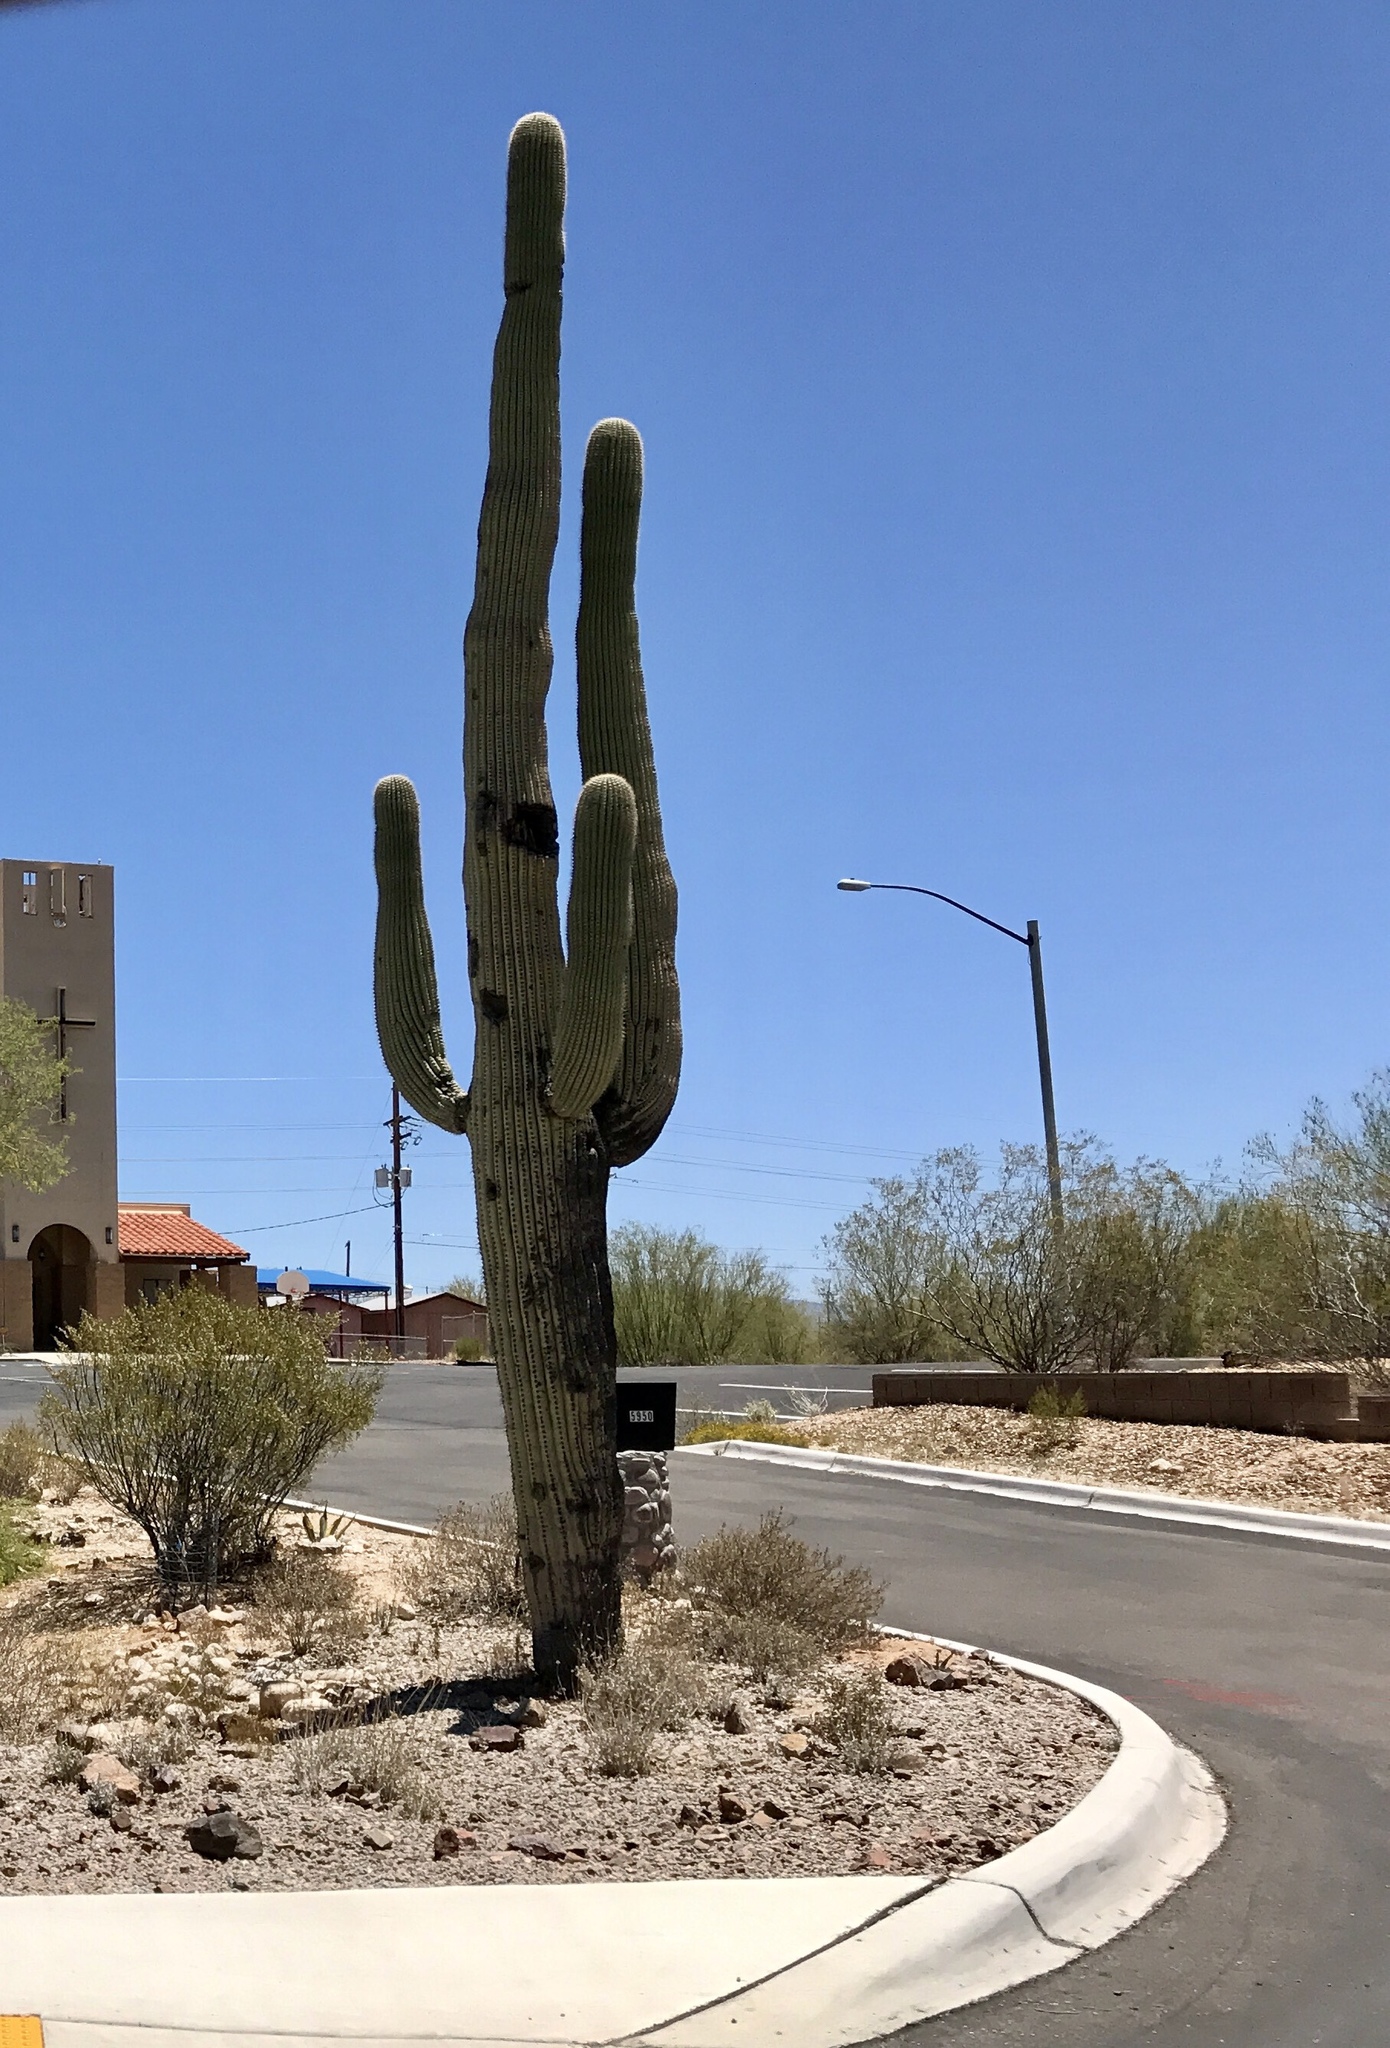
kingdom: Plantae
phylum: Tracheophyta
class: Magnoliopsida
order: Caryophyllales
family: Cactaceae
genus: Carnegiea
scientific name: Carnegiea gigantea
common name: Saguaro
